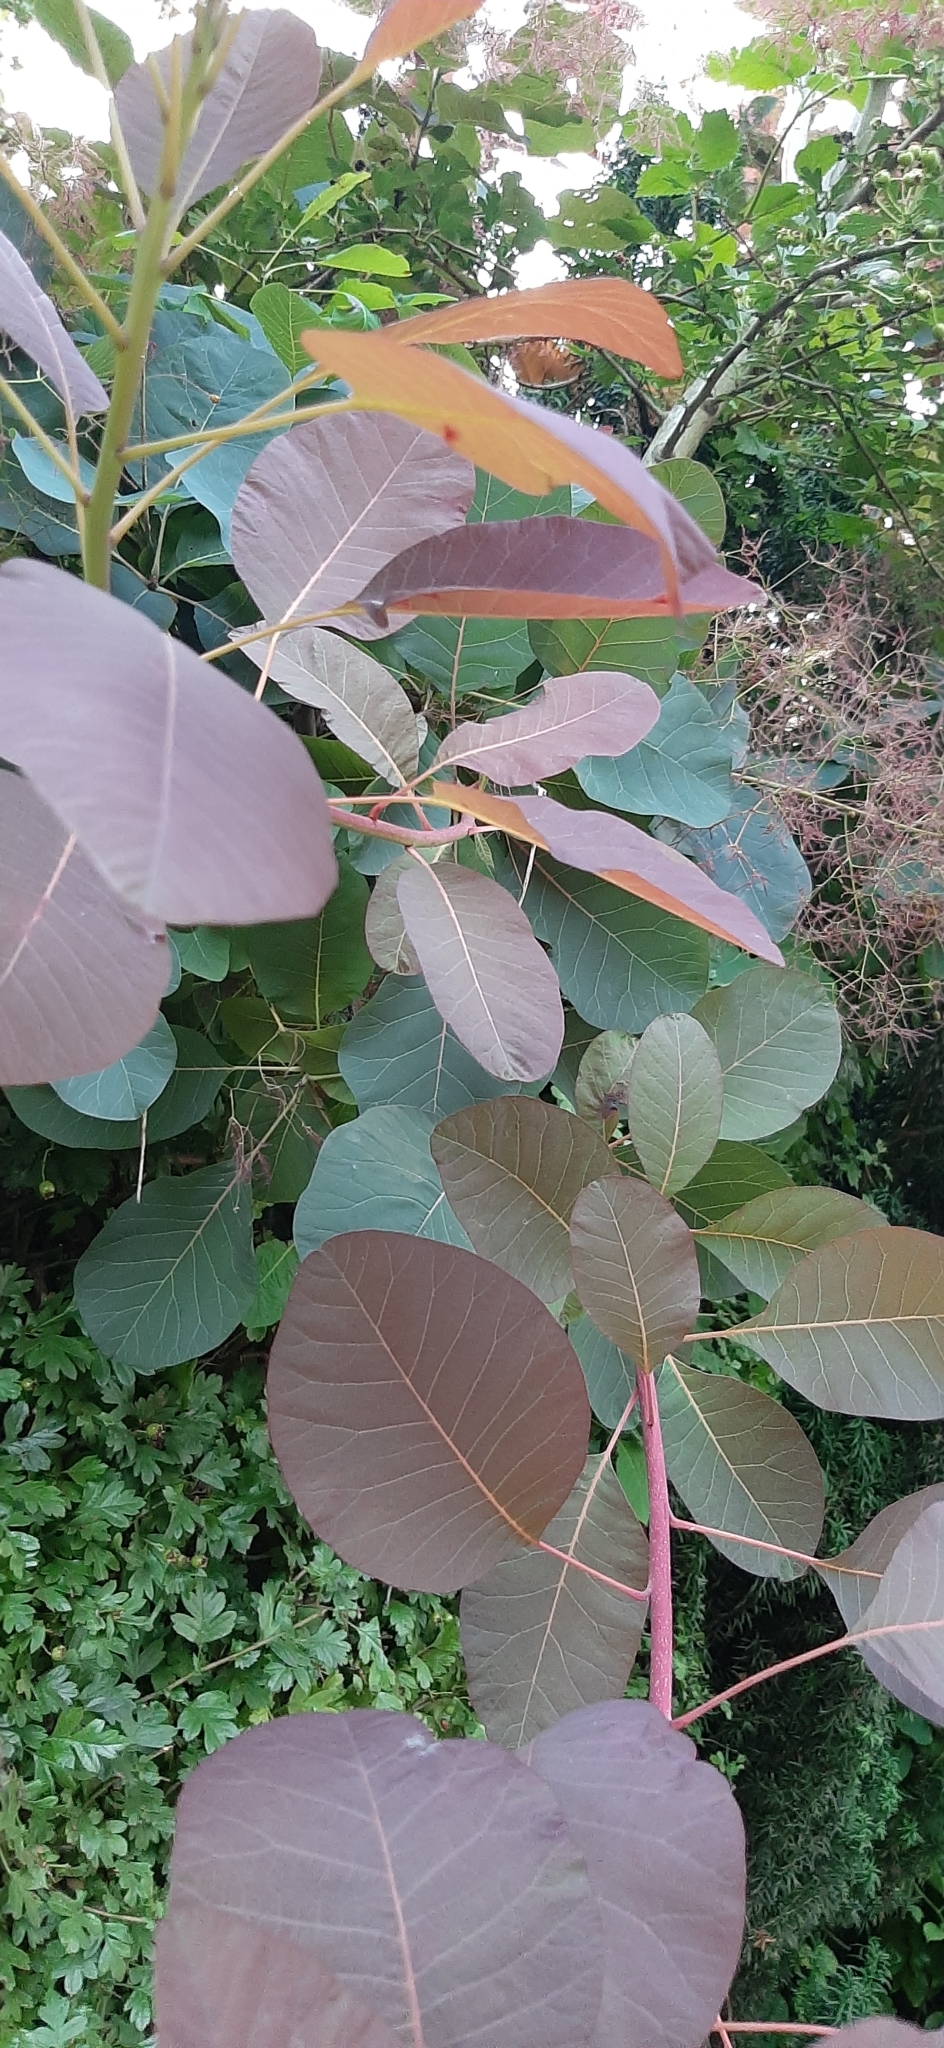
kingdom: Plantae
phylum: Tracheophyta
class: Magnoliopsida
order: Sapindales
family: Anacardiaceae
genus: Cotinus
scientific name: Cotinus coggygria
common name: Smoke-tree
